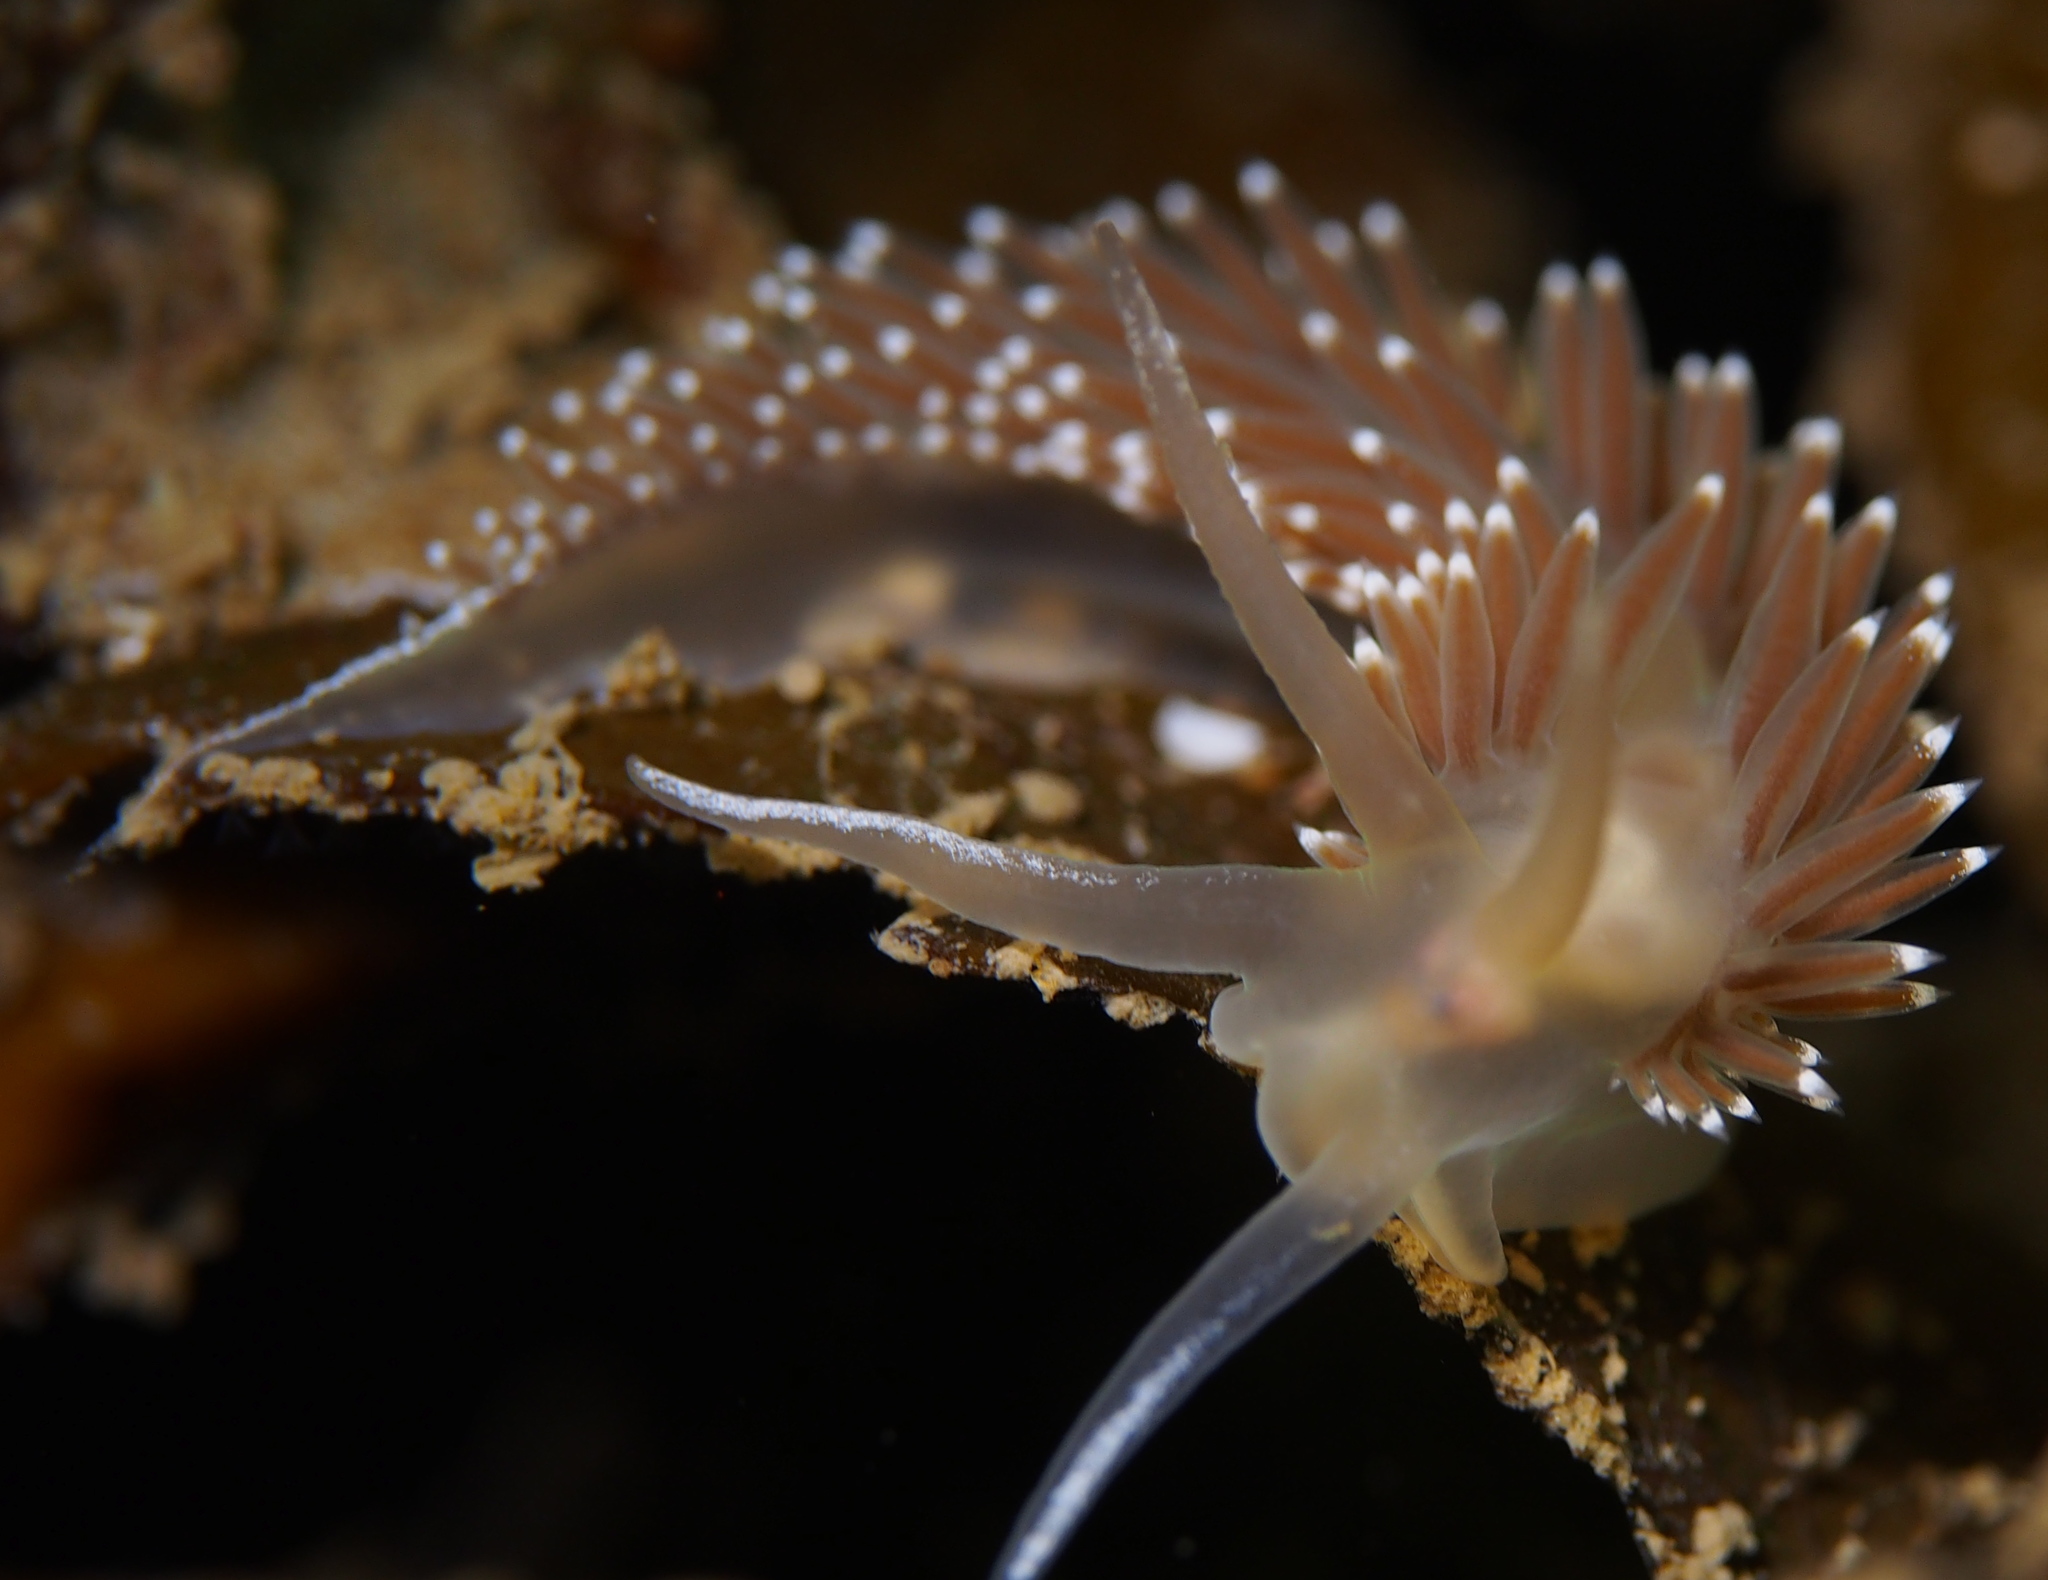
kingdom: Animalia
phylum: Mollusca
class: Gastropoda
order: Nudibranchia
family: Coryphellidae
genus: Coryphella
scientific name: Coryphella nobilis
